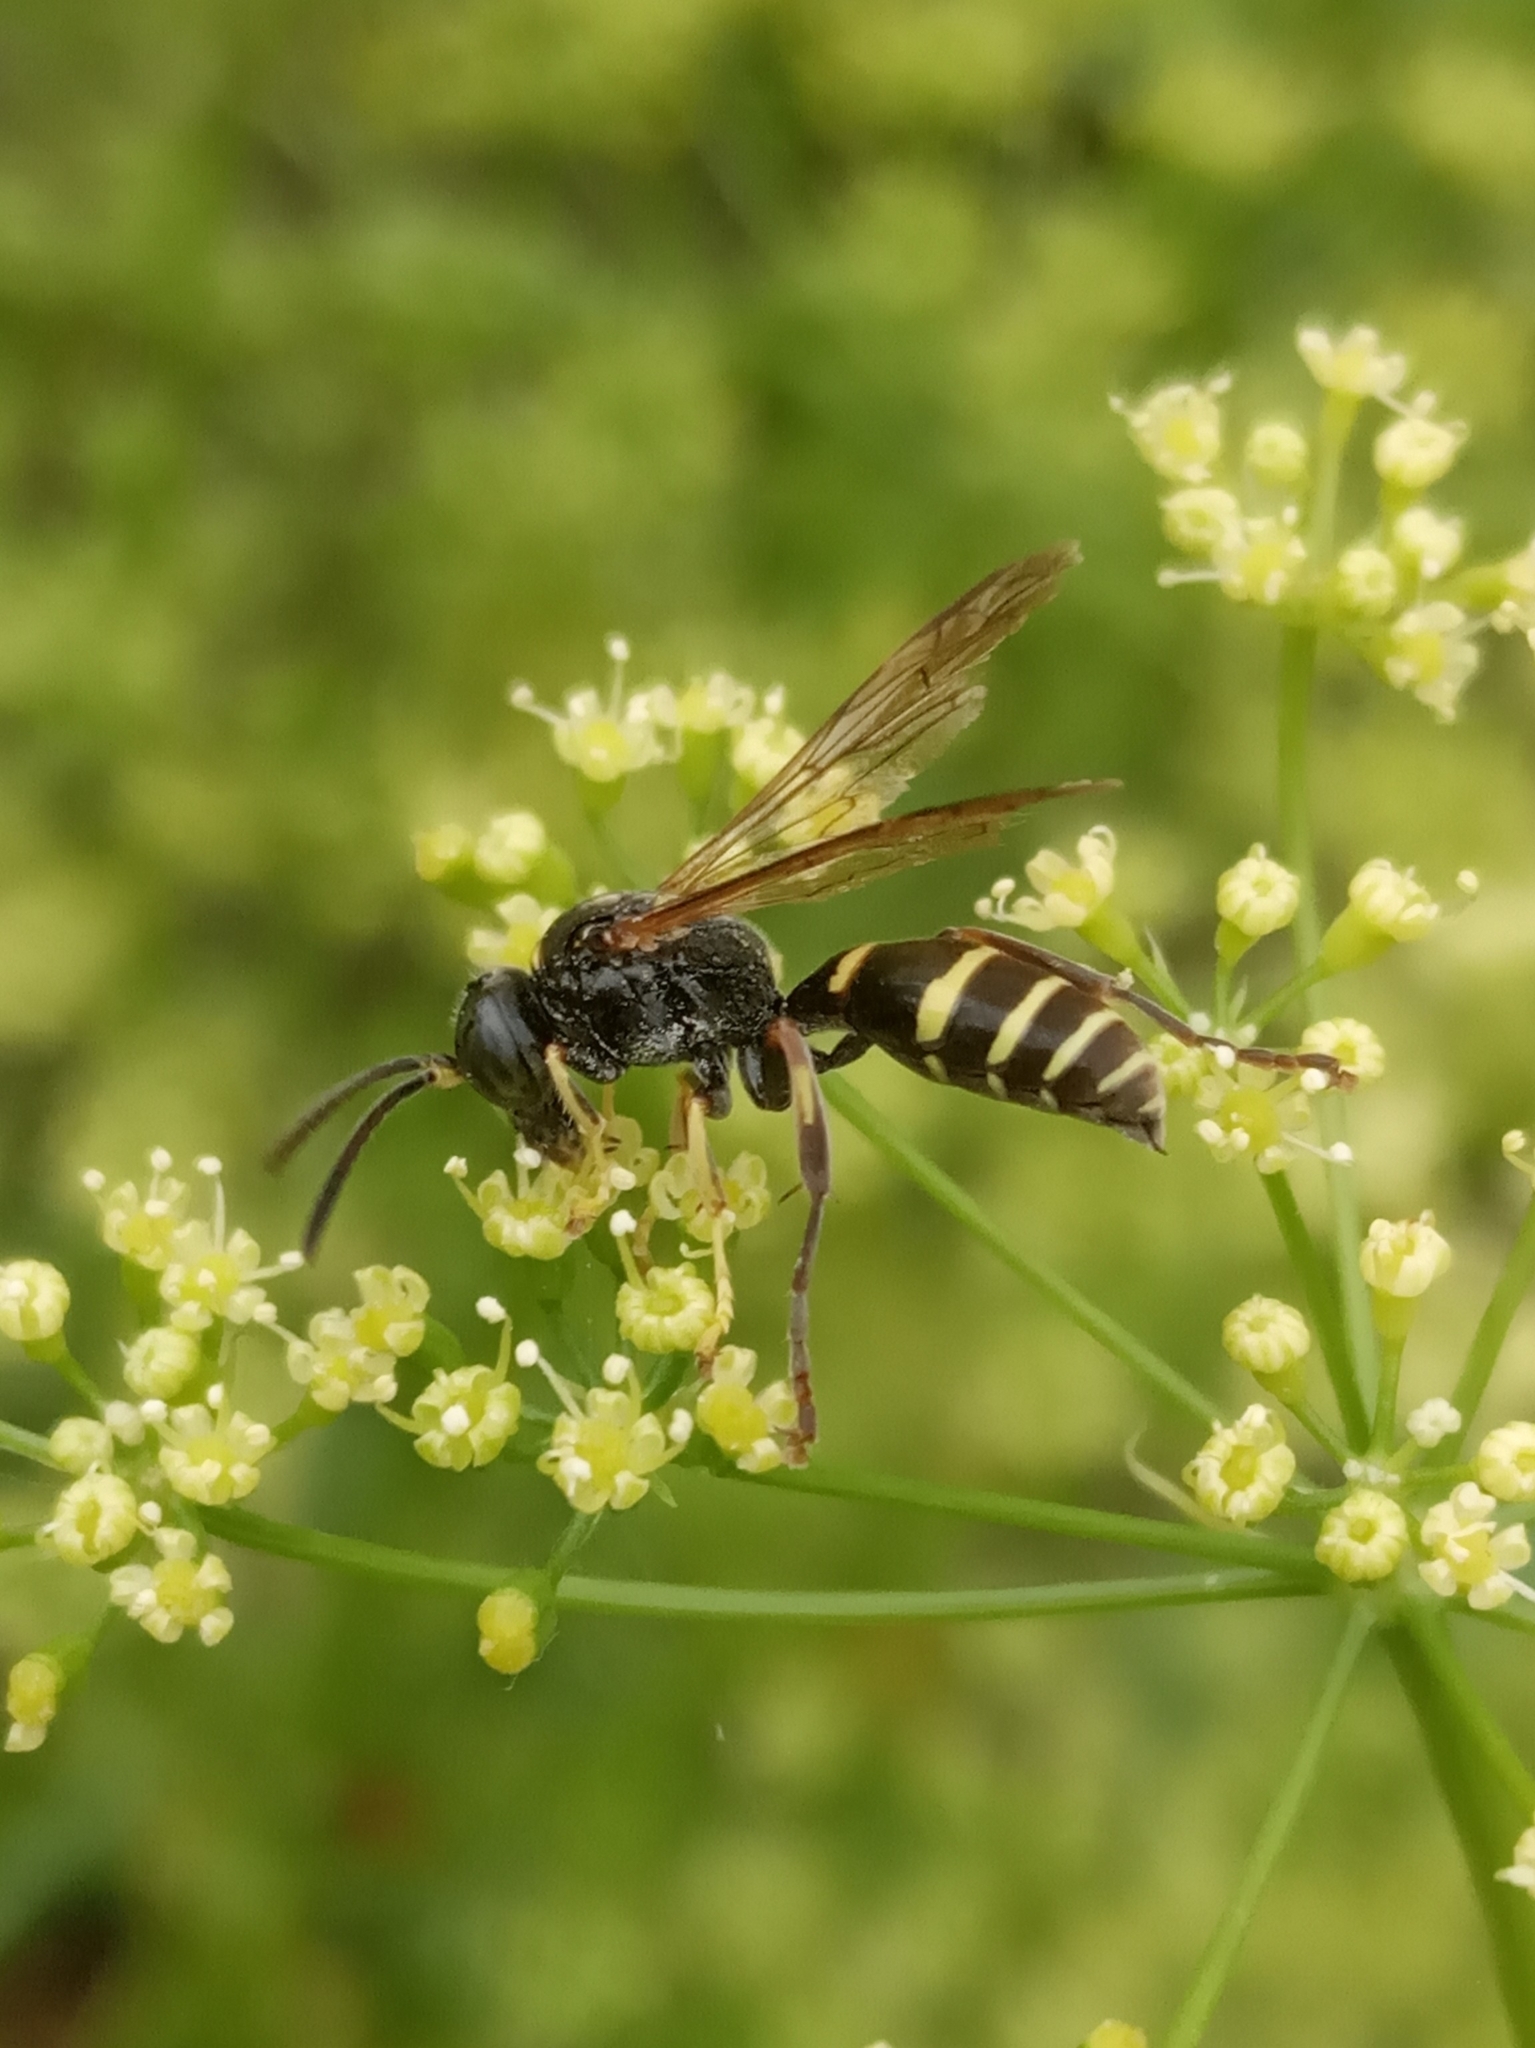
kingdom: Animalia
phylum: Arthropoda
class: Insecta
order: Hymenoptera
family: Crabronidae
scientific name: Crabronidae
